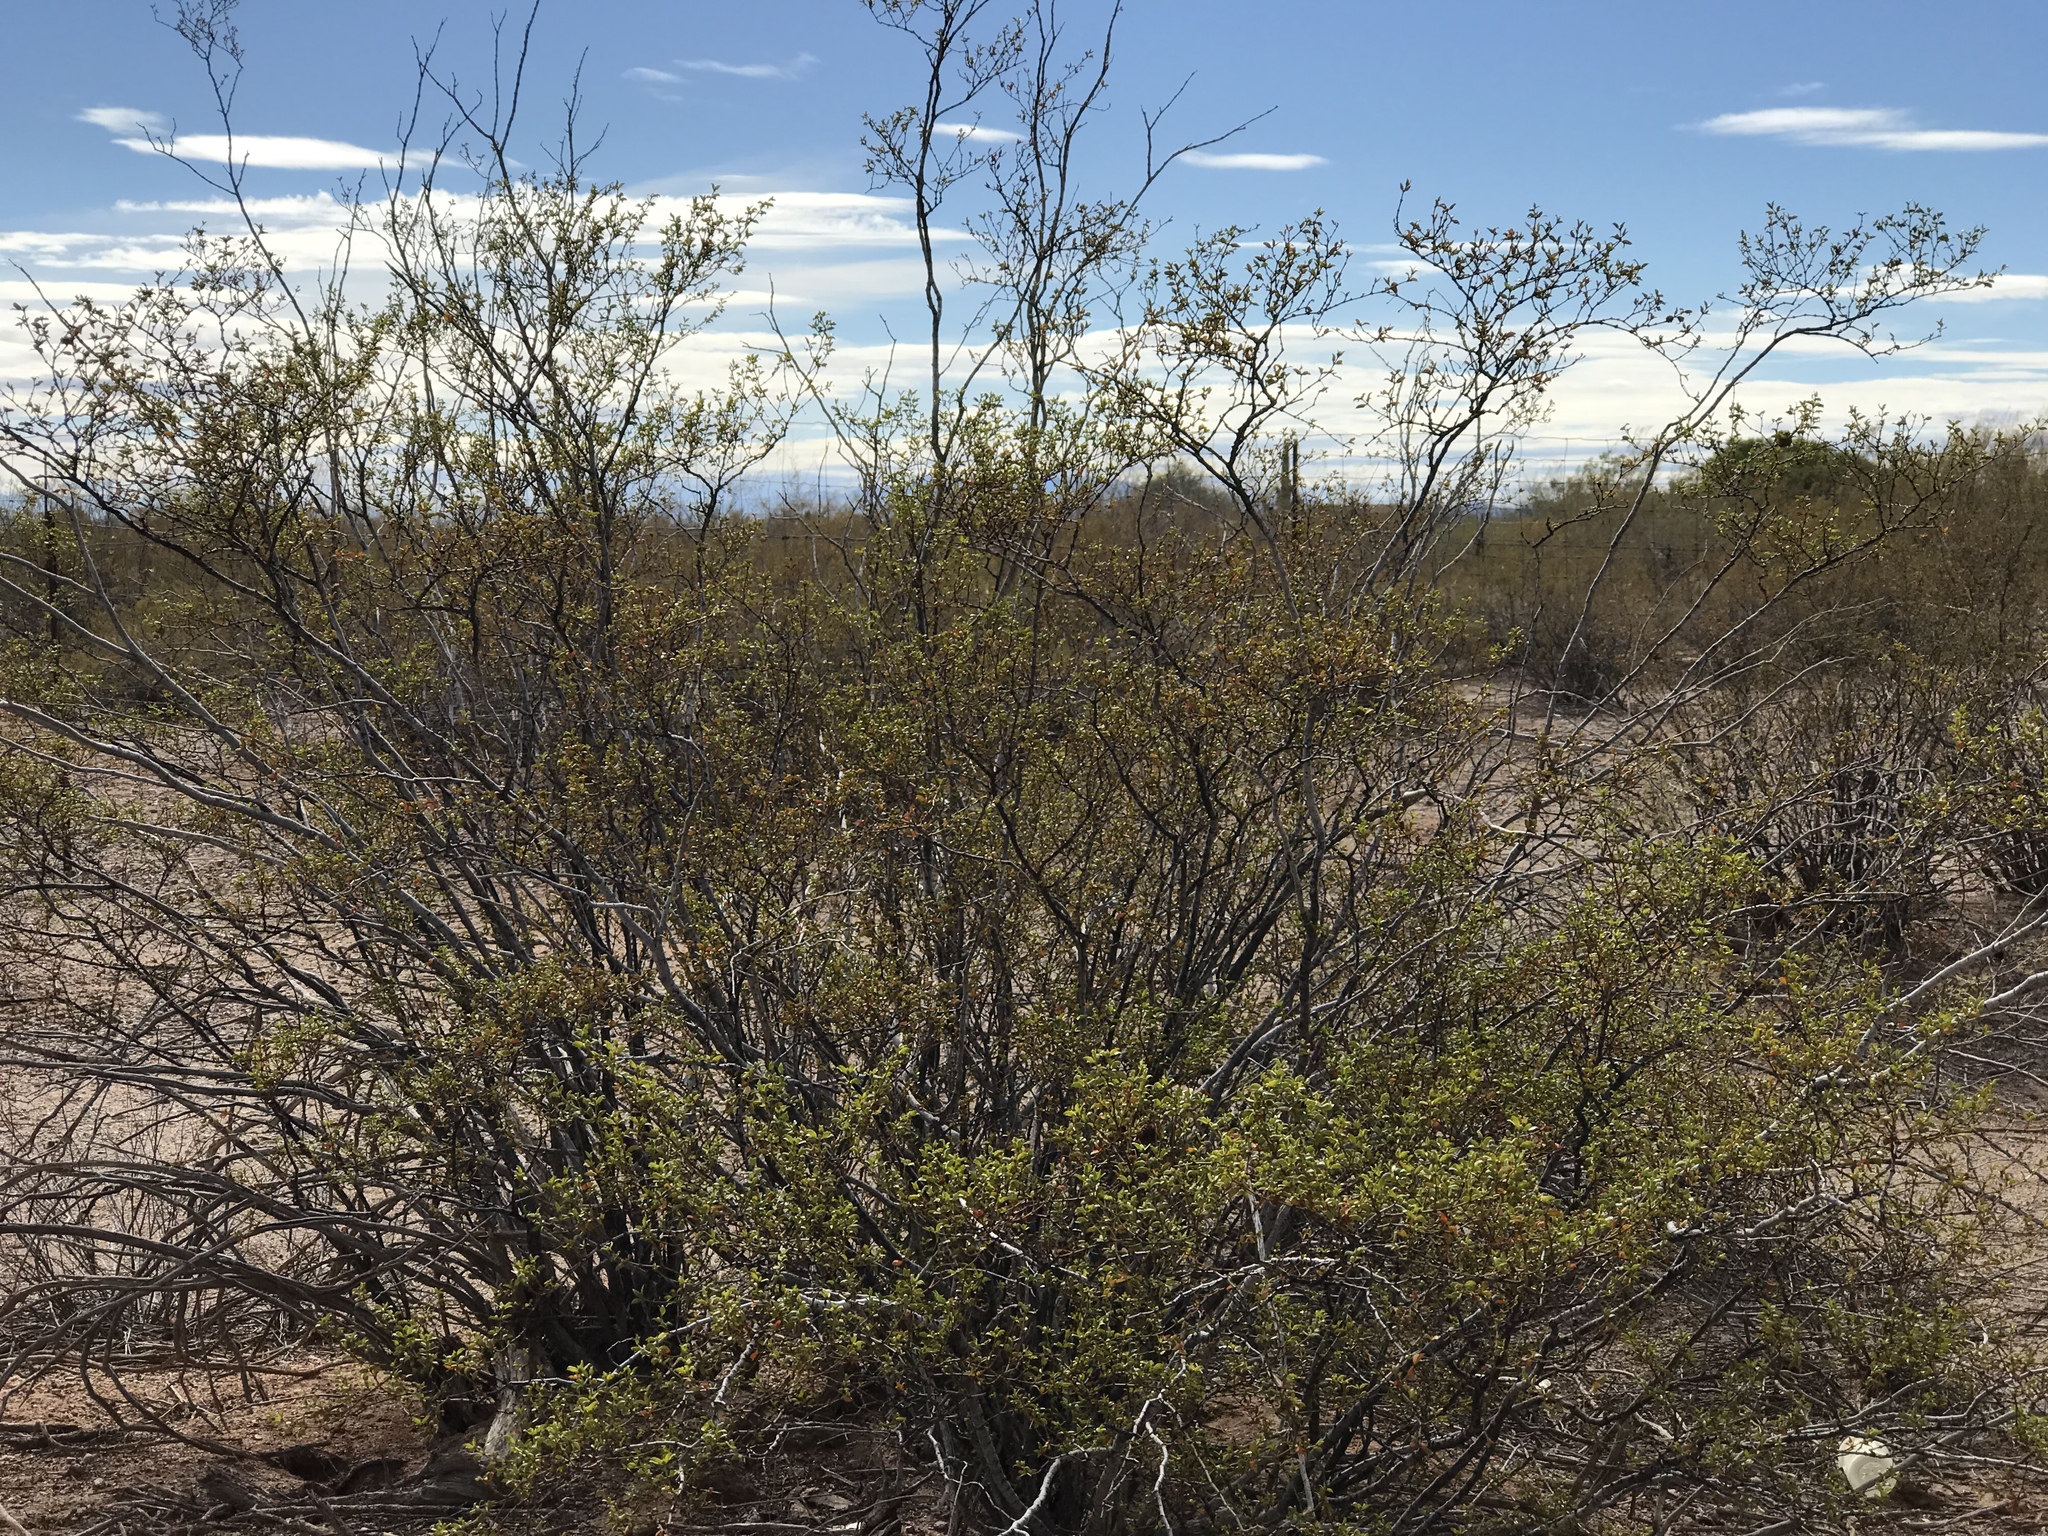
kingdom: Plantae
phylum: Tracheophyta
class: Magnoliopsida
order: Zygophyllales
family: Zygophyllaceae
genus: Larrea
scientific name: Larrea tridentata
